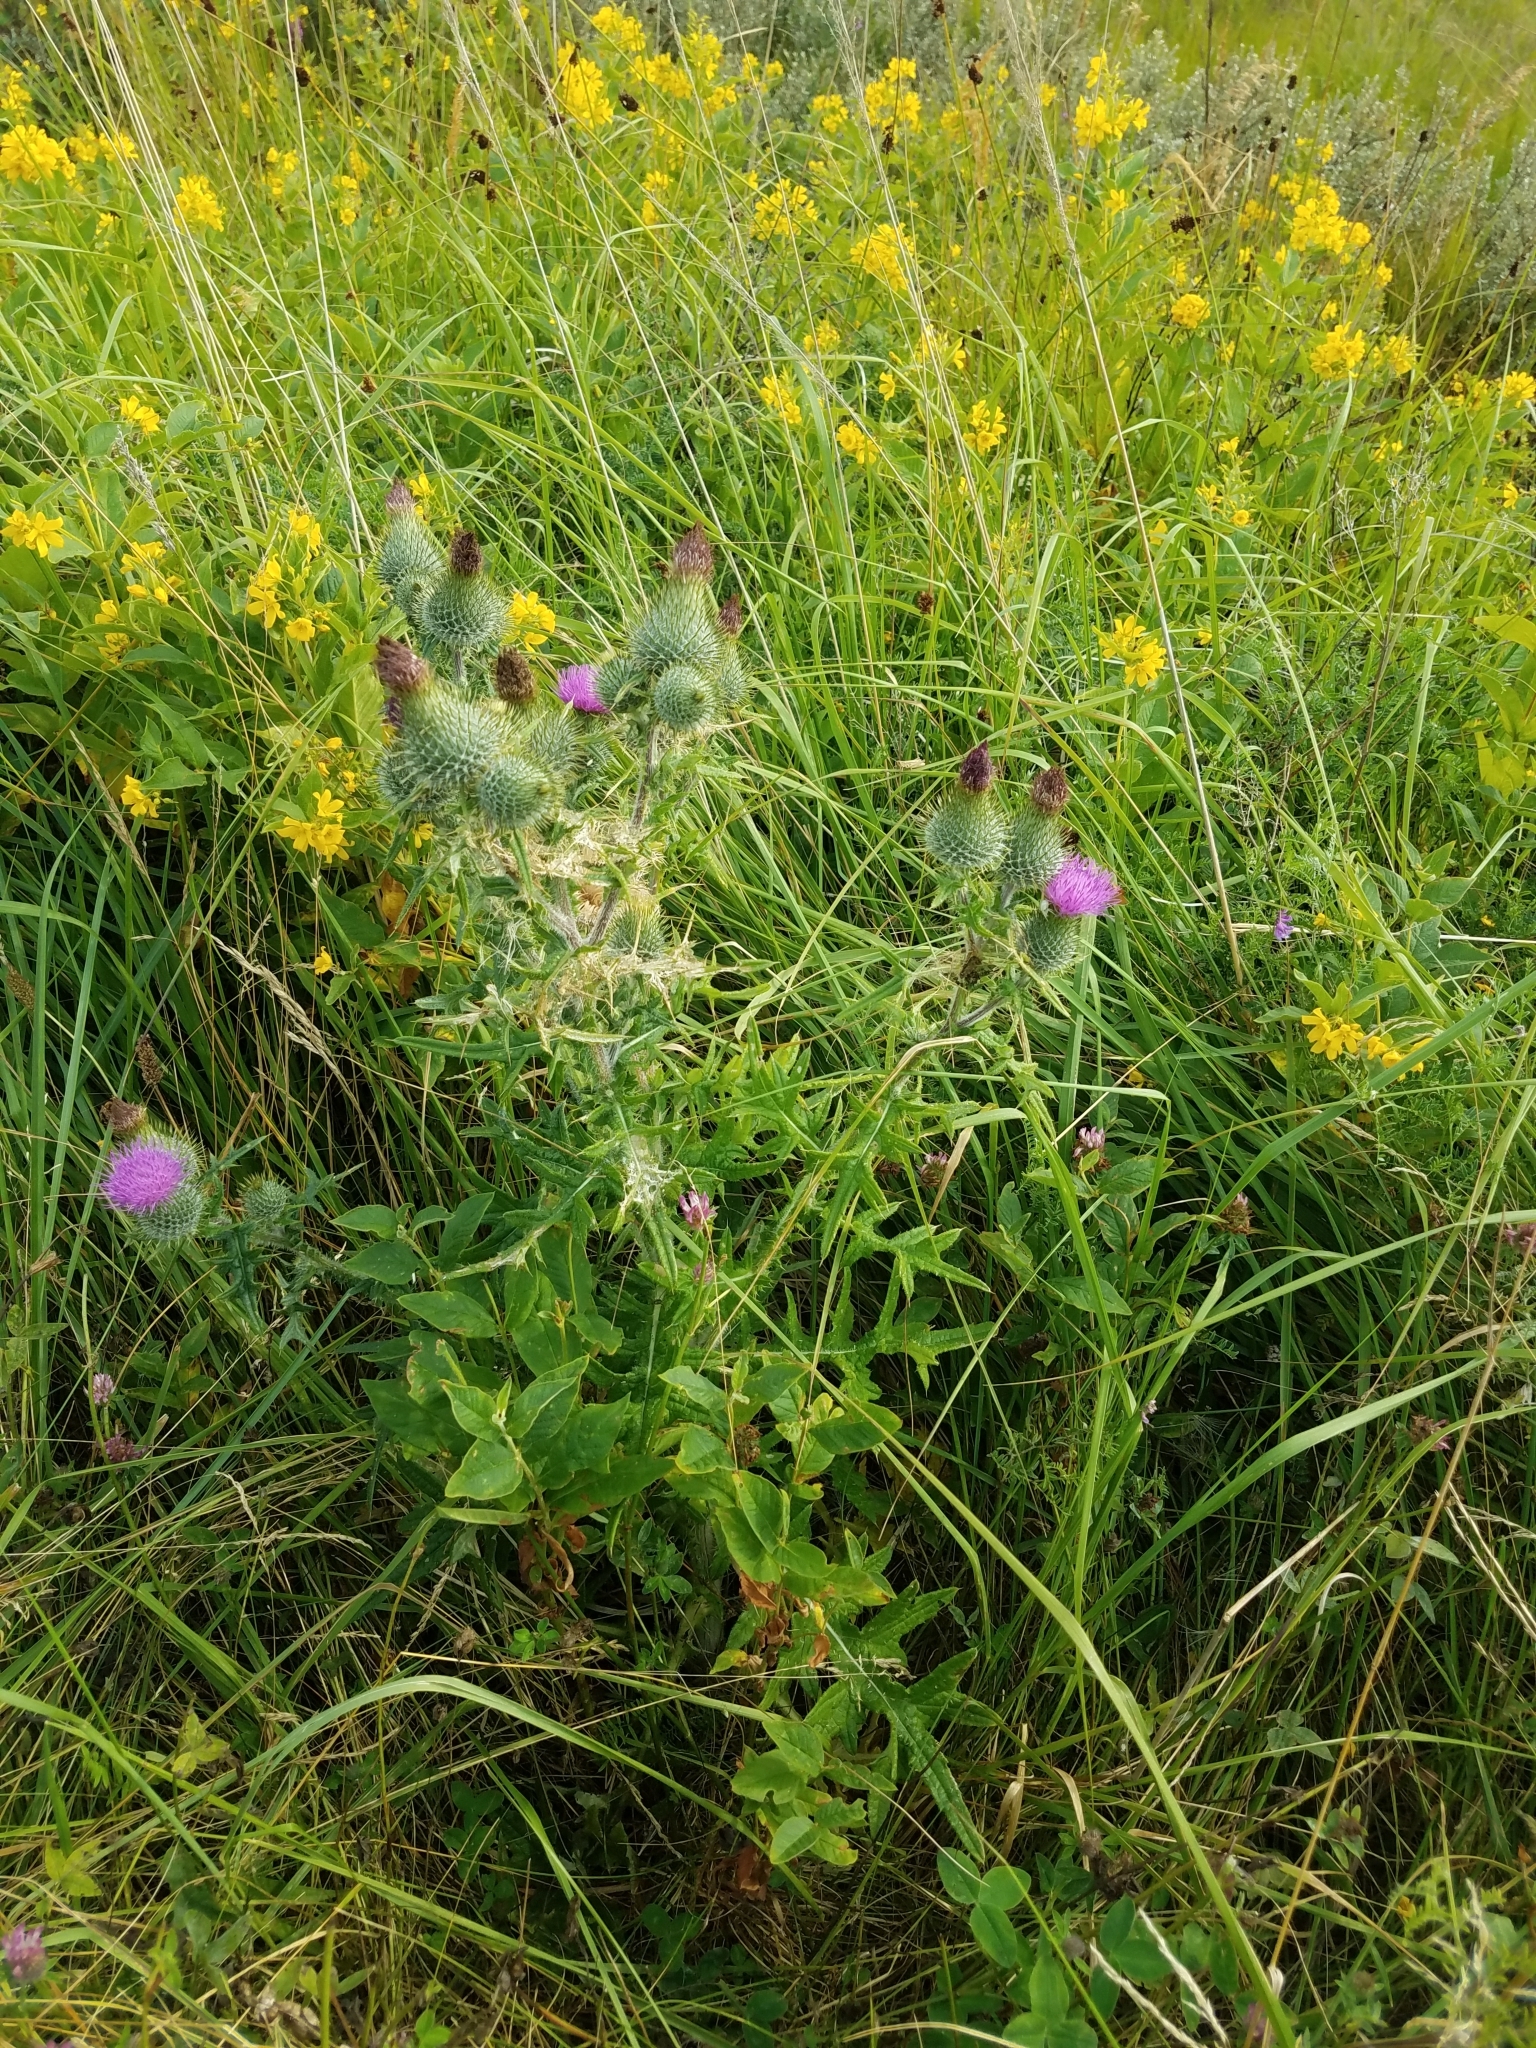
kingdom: Plantae
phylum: Tracheophyta
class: Magnoliopsida
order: Asterales
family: Asteraceae
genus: Cirsium
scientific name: Cirsium vulgare
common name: Bull thistle
